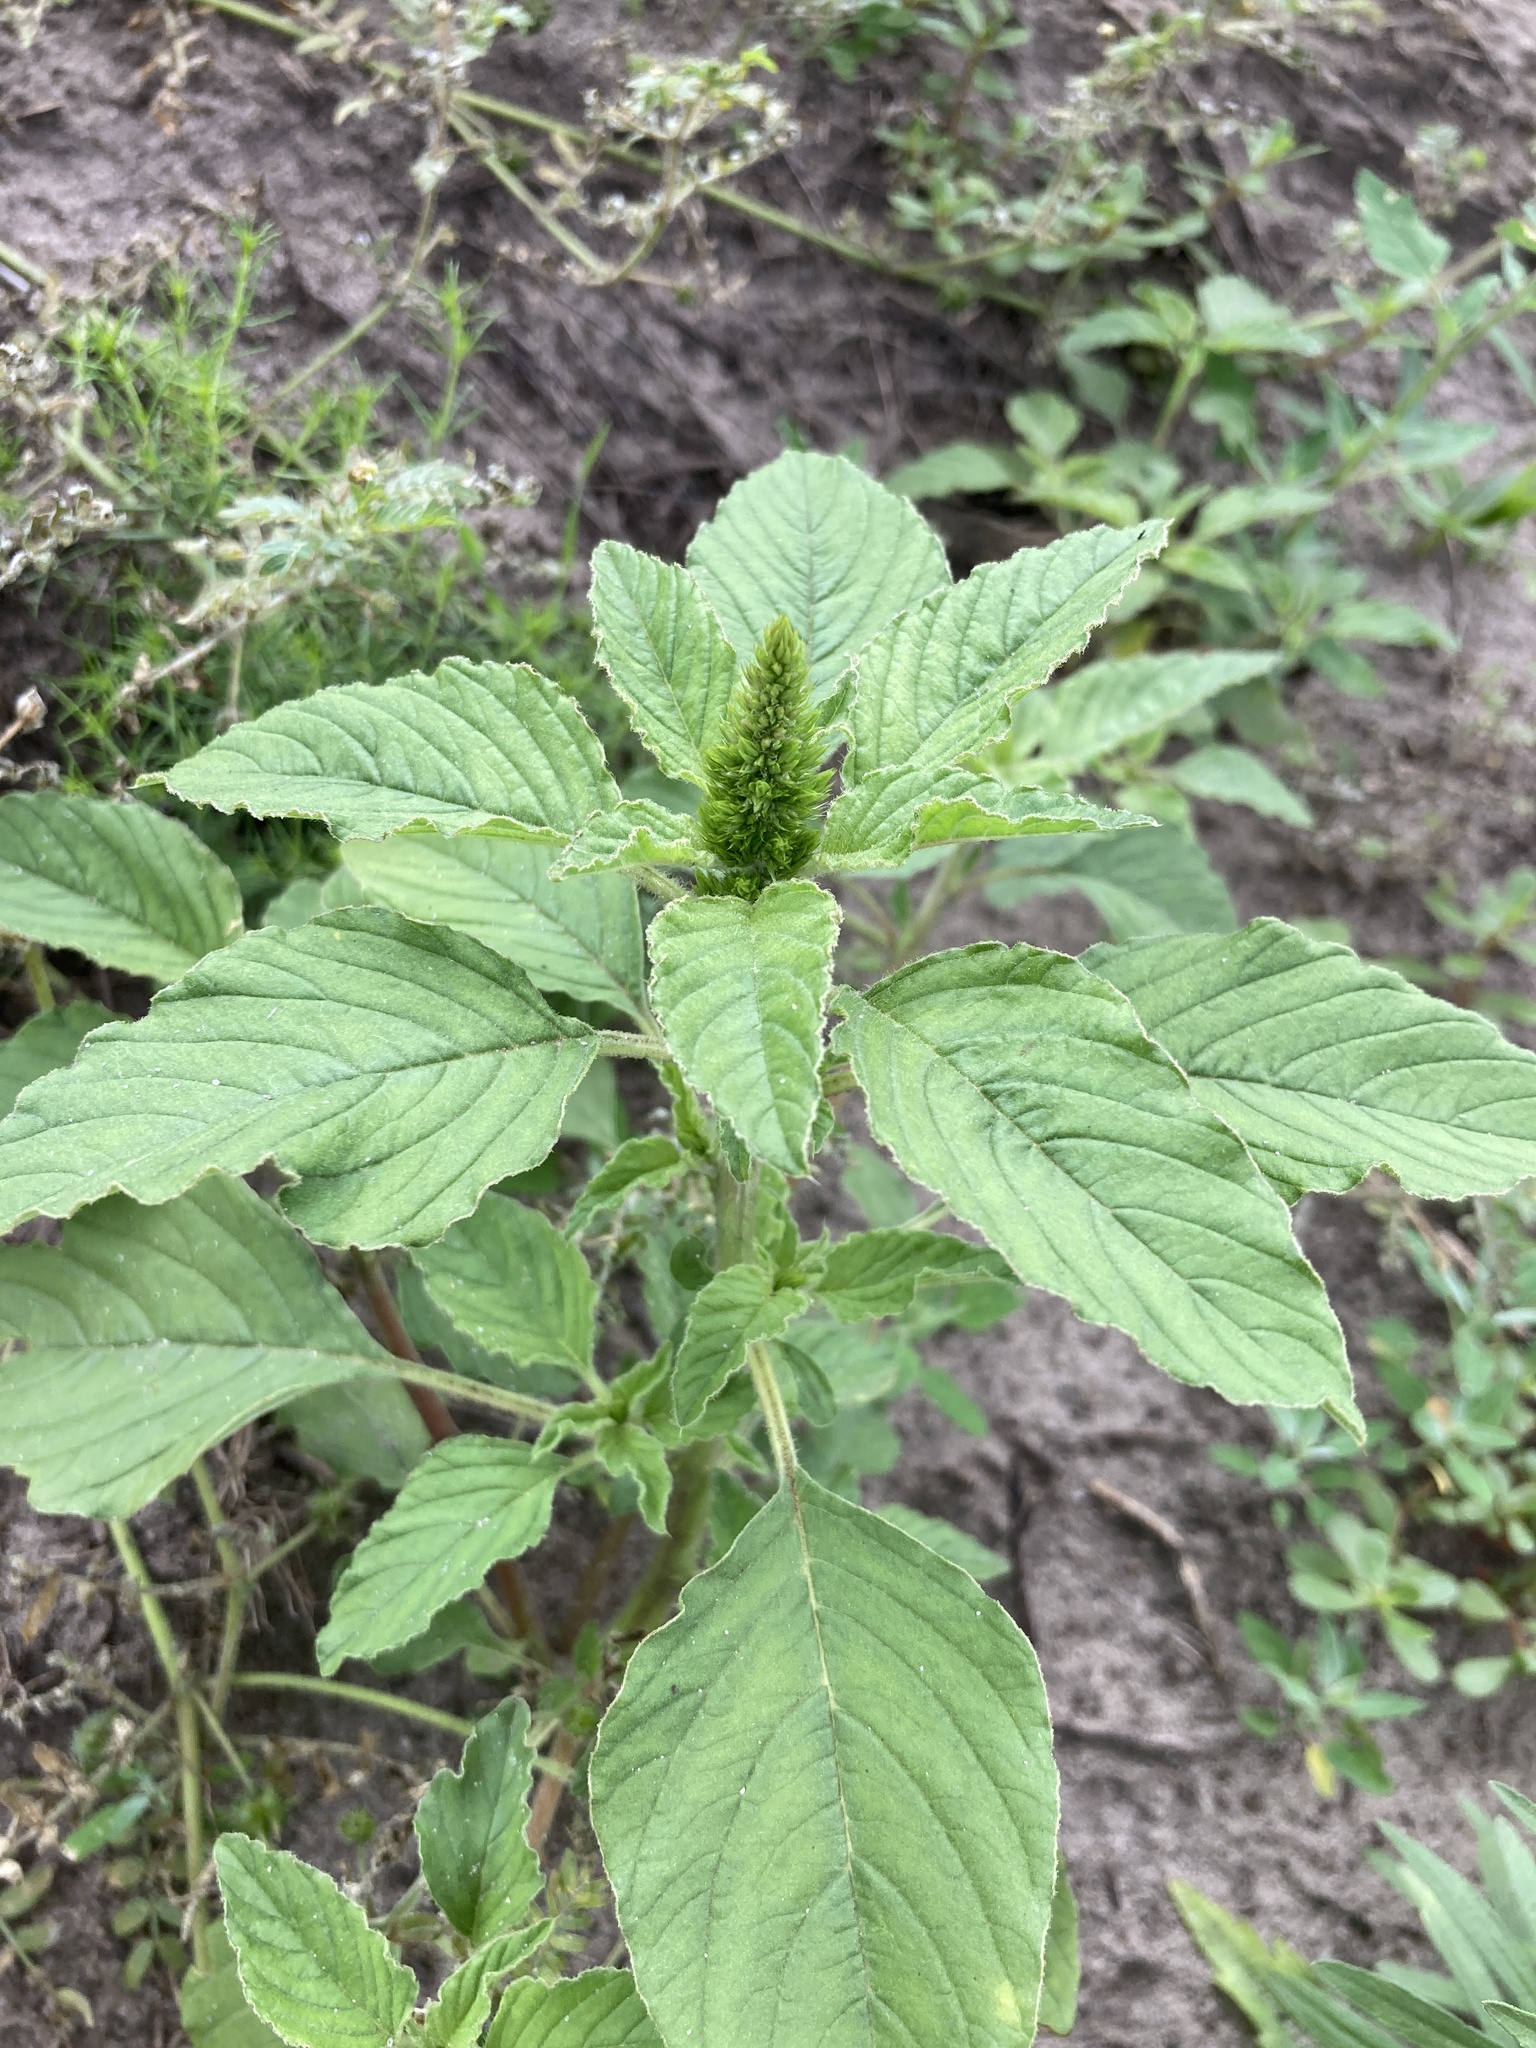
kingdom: Plantae
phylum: Tracheophyta
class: Magnoliopsida
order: Caryophyllales
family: Amaranthaceae
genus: Amaranthus
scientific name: Amaranthus retroflexus
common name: Redroot amaranth
